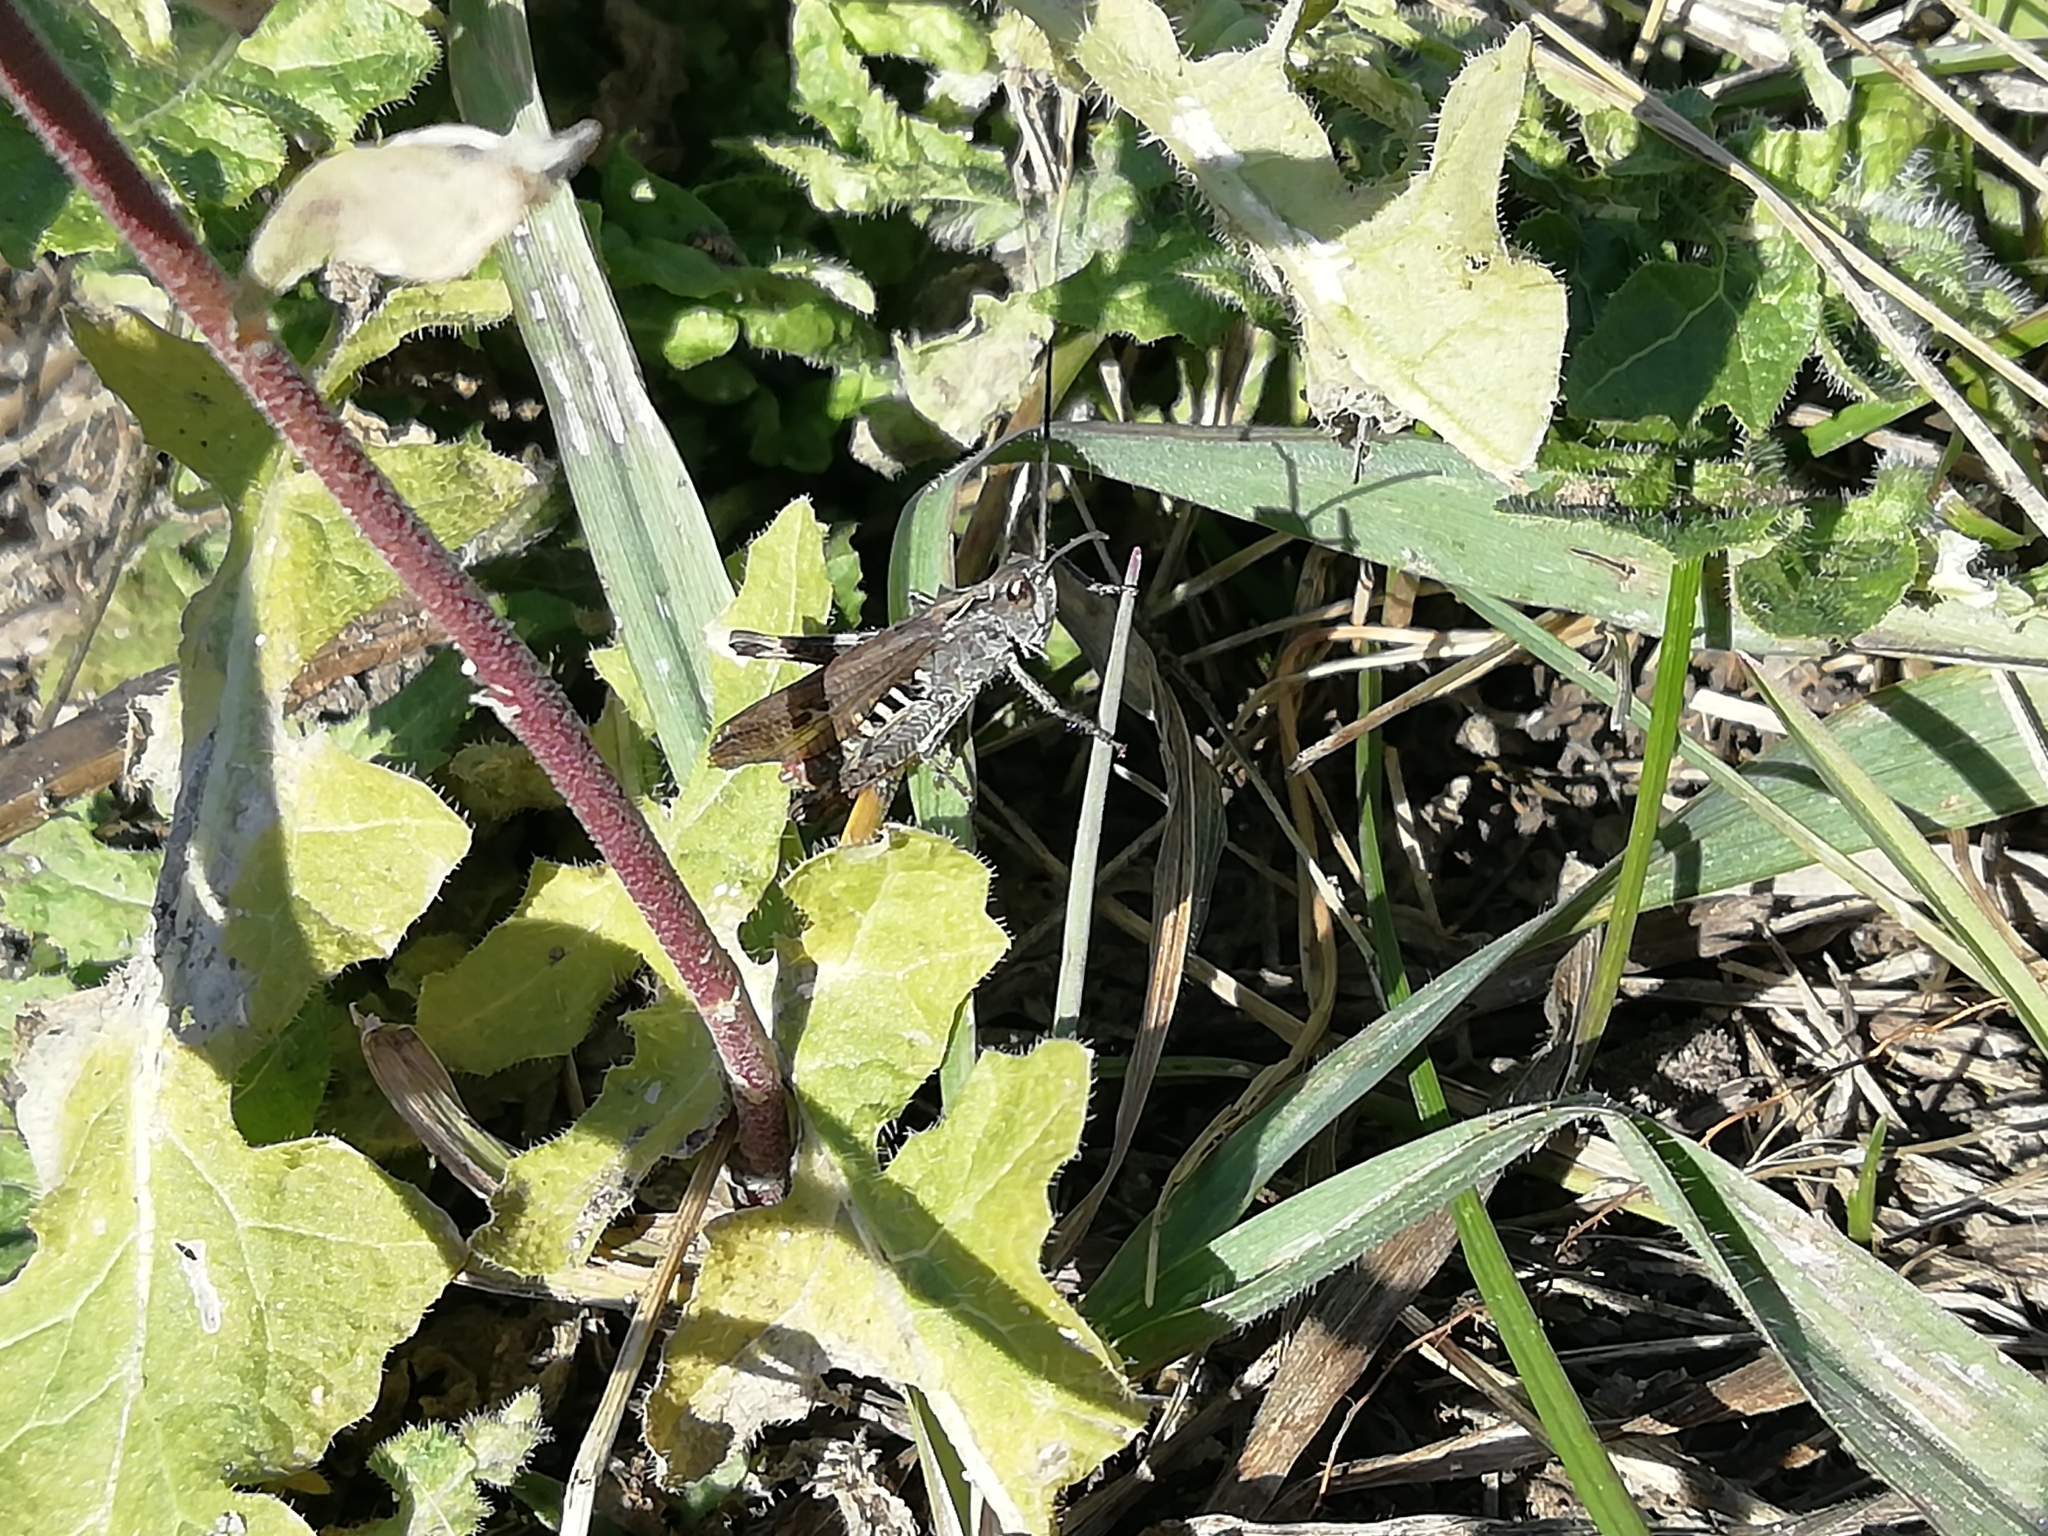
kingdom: Animalia
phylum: Arthropoda
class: Insecta
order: Orthoptera
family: Acrididae
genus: Chorthippus
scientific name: Chorthippus biguttulus
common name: Bow-winged grasshopper
